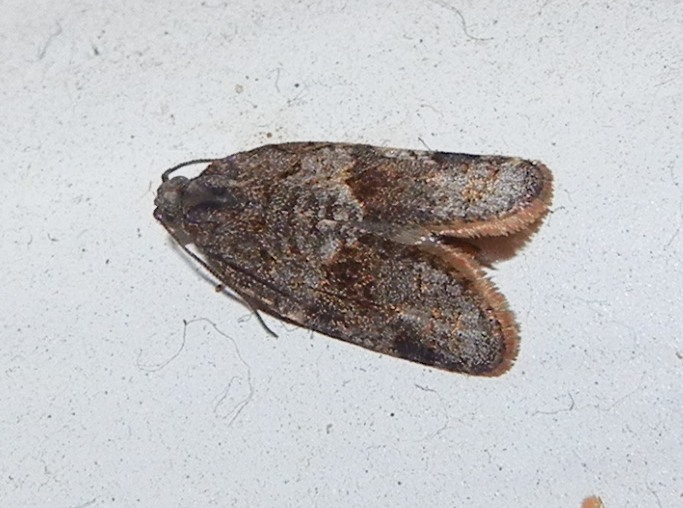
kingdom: Animalia
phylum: Arthropoda
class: Insecta
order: Lepidoptera
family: Tortricidae
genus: Syndemis
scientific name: Syndemis musculana
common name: Dark-barred twist
